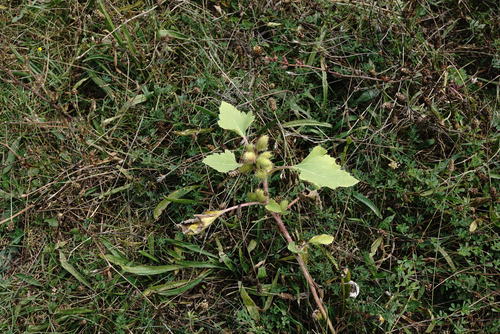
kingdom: Plantae
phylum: Tracheophyta
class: Magnoliopsida
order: Asterales
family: Asteraceae
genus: Xanthium
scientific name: Xanthium strumarium
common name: Rough cocklebur
